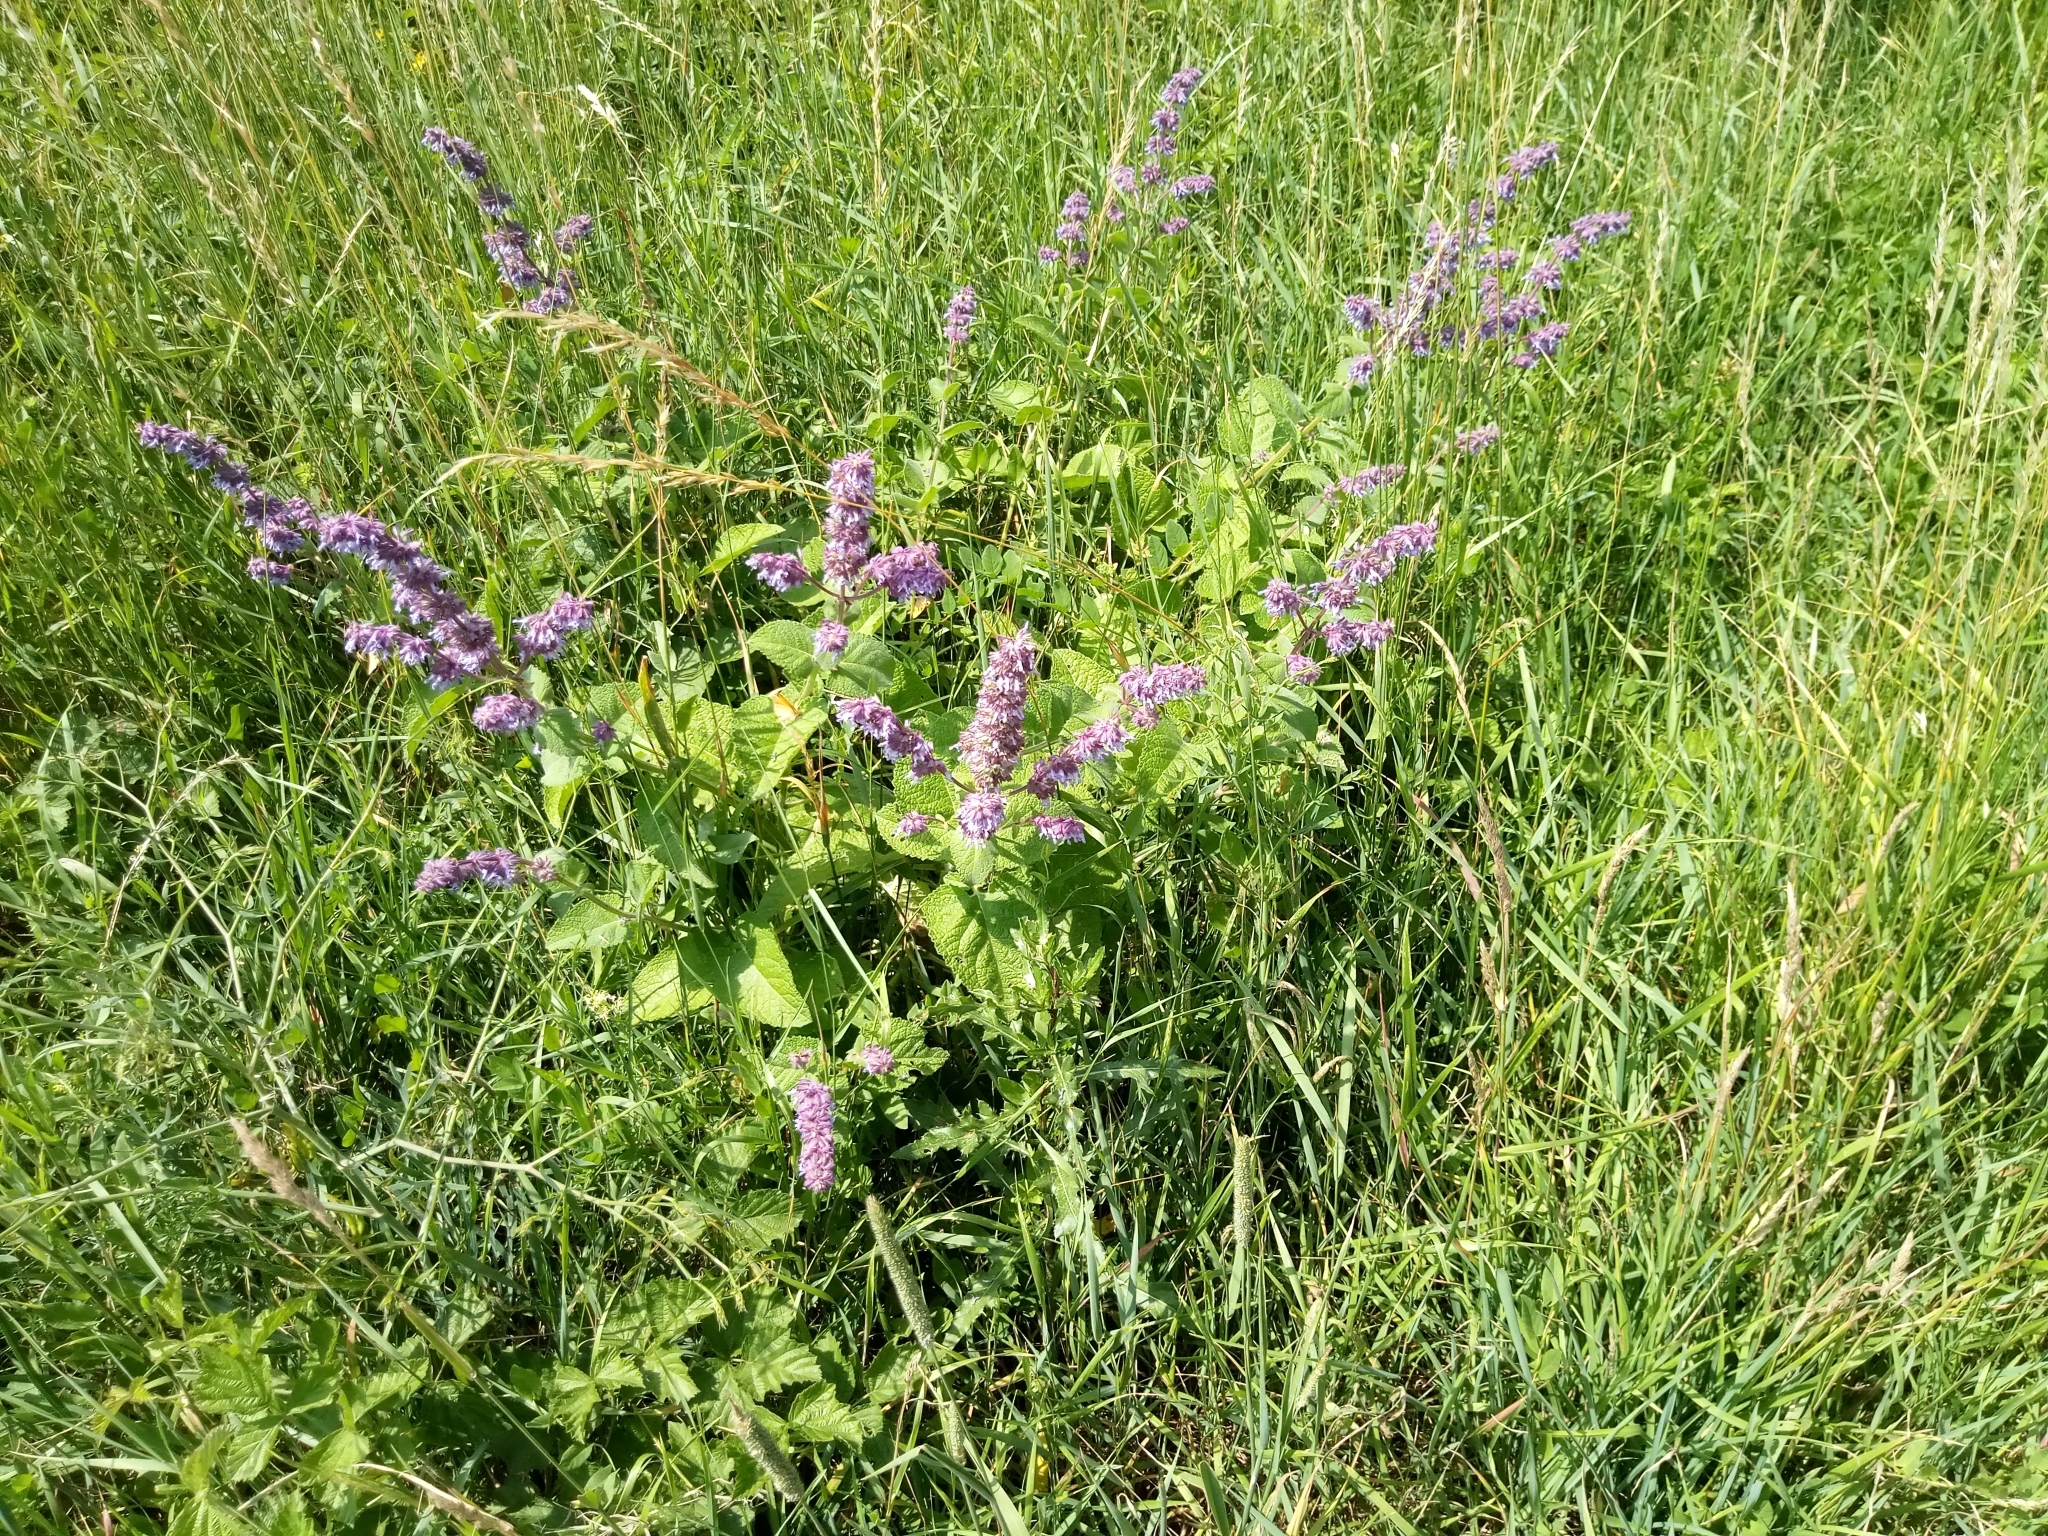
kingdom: Plantae
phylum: Tracheophyta
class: Magnoliopsida
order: Lamiales
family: Lamiaceae
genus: Salvia
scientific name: Salvia verticillata
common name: Whorled clary
